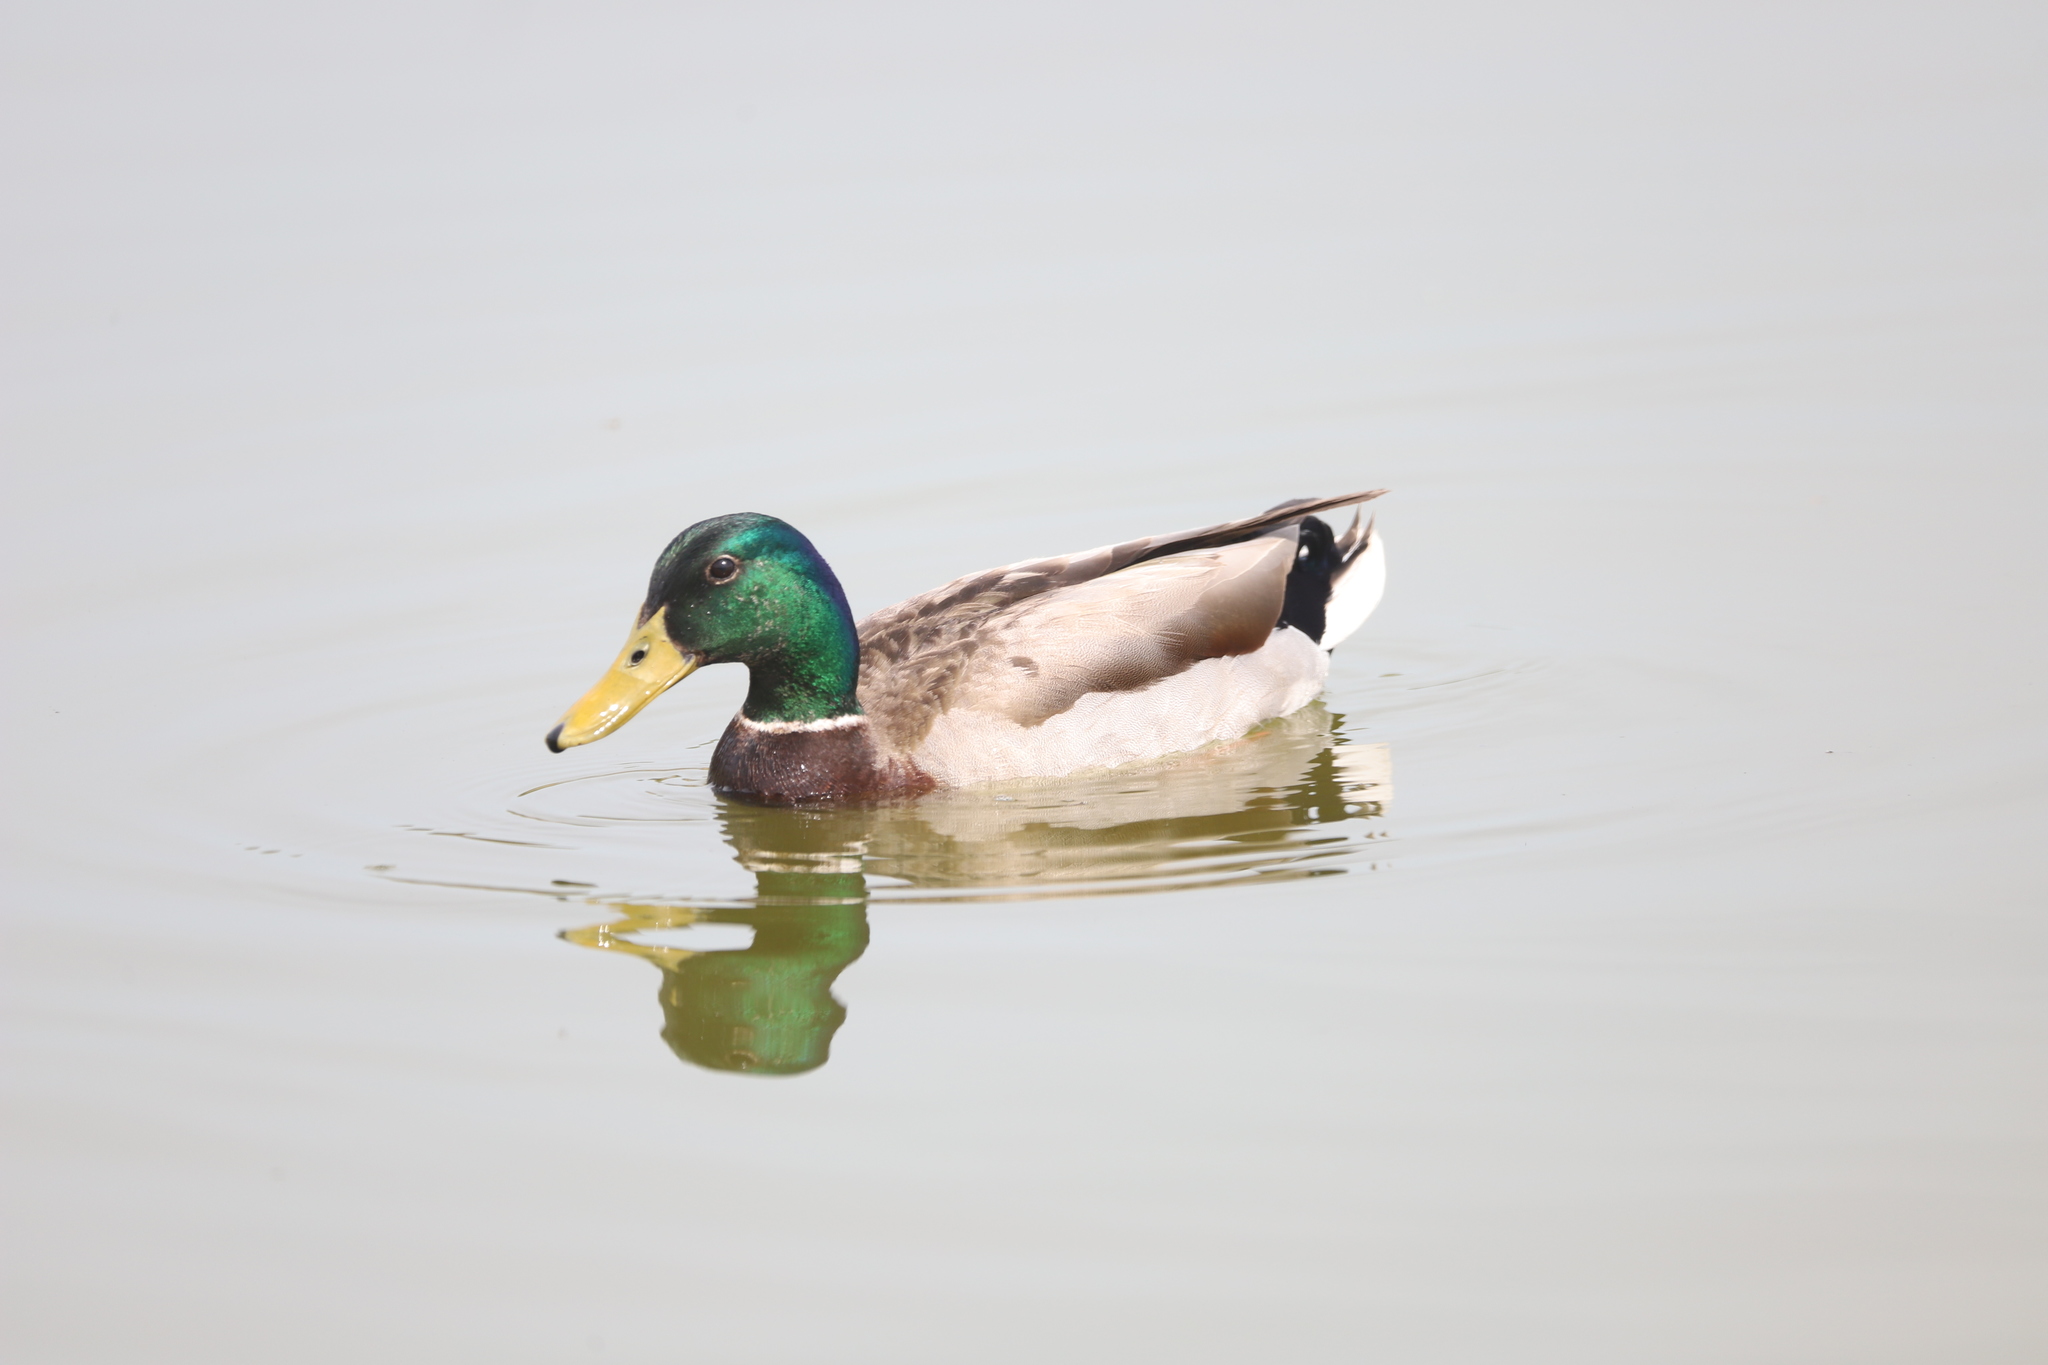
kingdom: Animalia
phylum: Chordata
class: Aves
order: Anseriformes
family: Anatidae
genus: Anas
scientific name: Anas platyrhynchos
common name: Mallard
